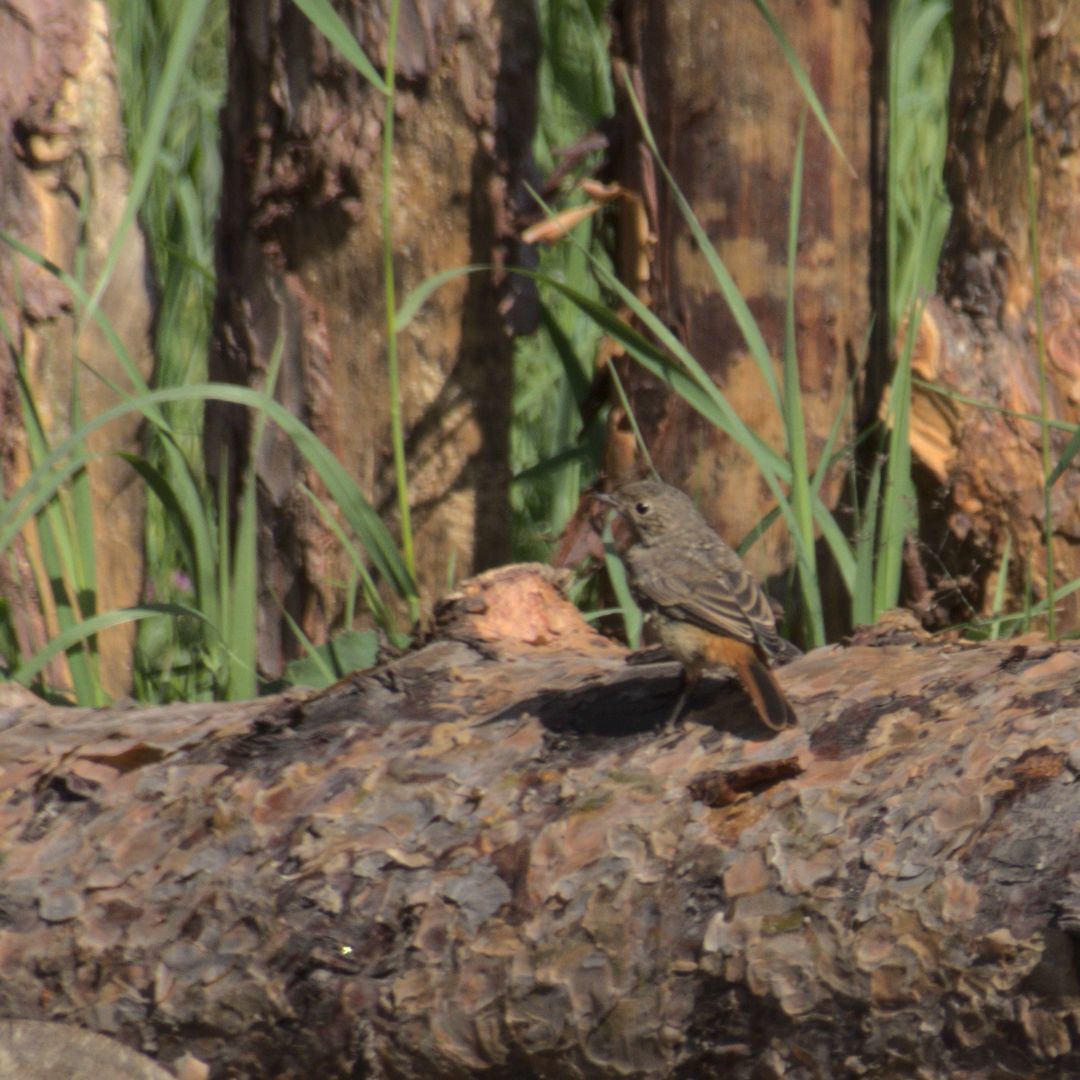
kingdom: Animalia
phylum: Chordata
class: Aves
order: Passeriformes
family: Muscicapidae
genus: Phoenicurus
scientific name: Phoenicurus phoenicurus
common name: Common redstart
